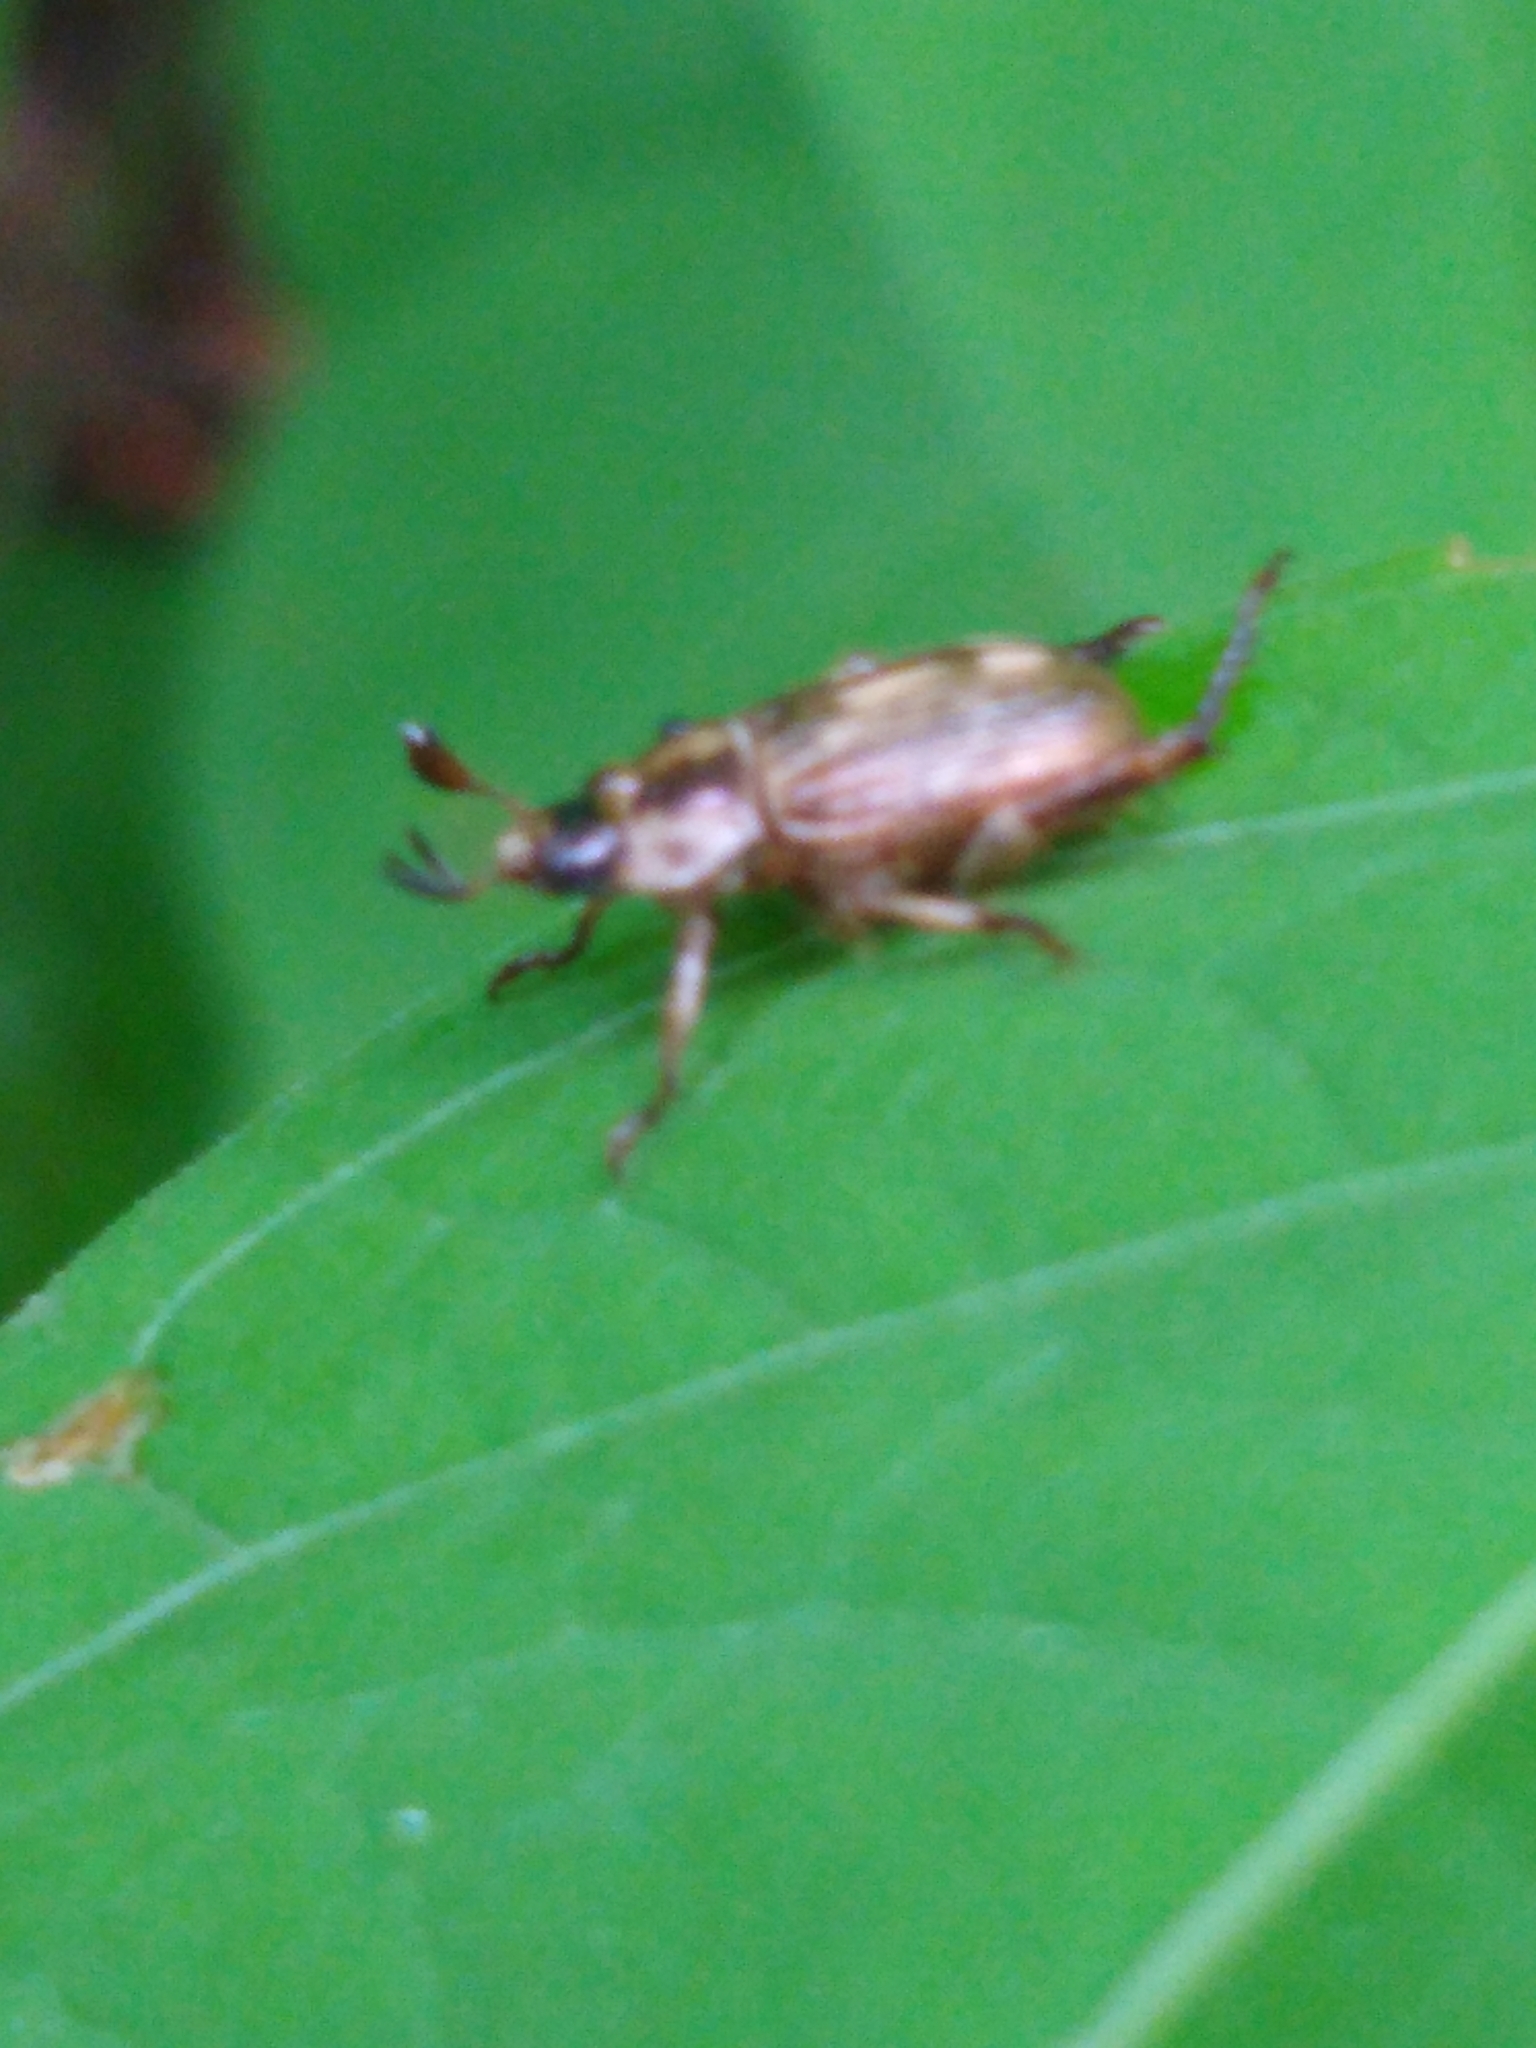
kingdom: Animalia
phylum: Arthropoda
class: Insecta
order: Coleoptera
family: Scarabaeidae
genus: Exomala
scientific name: Exomala orientalis
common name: Oriental beetle
